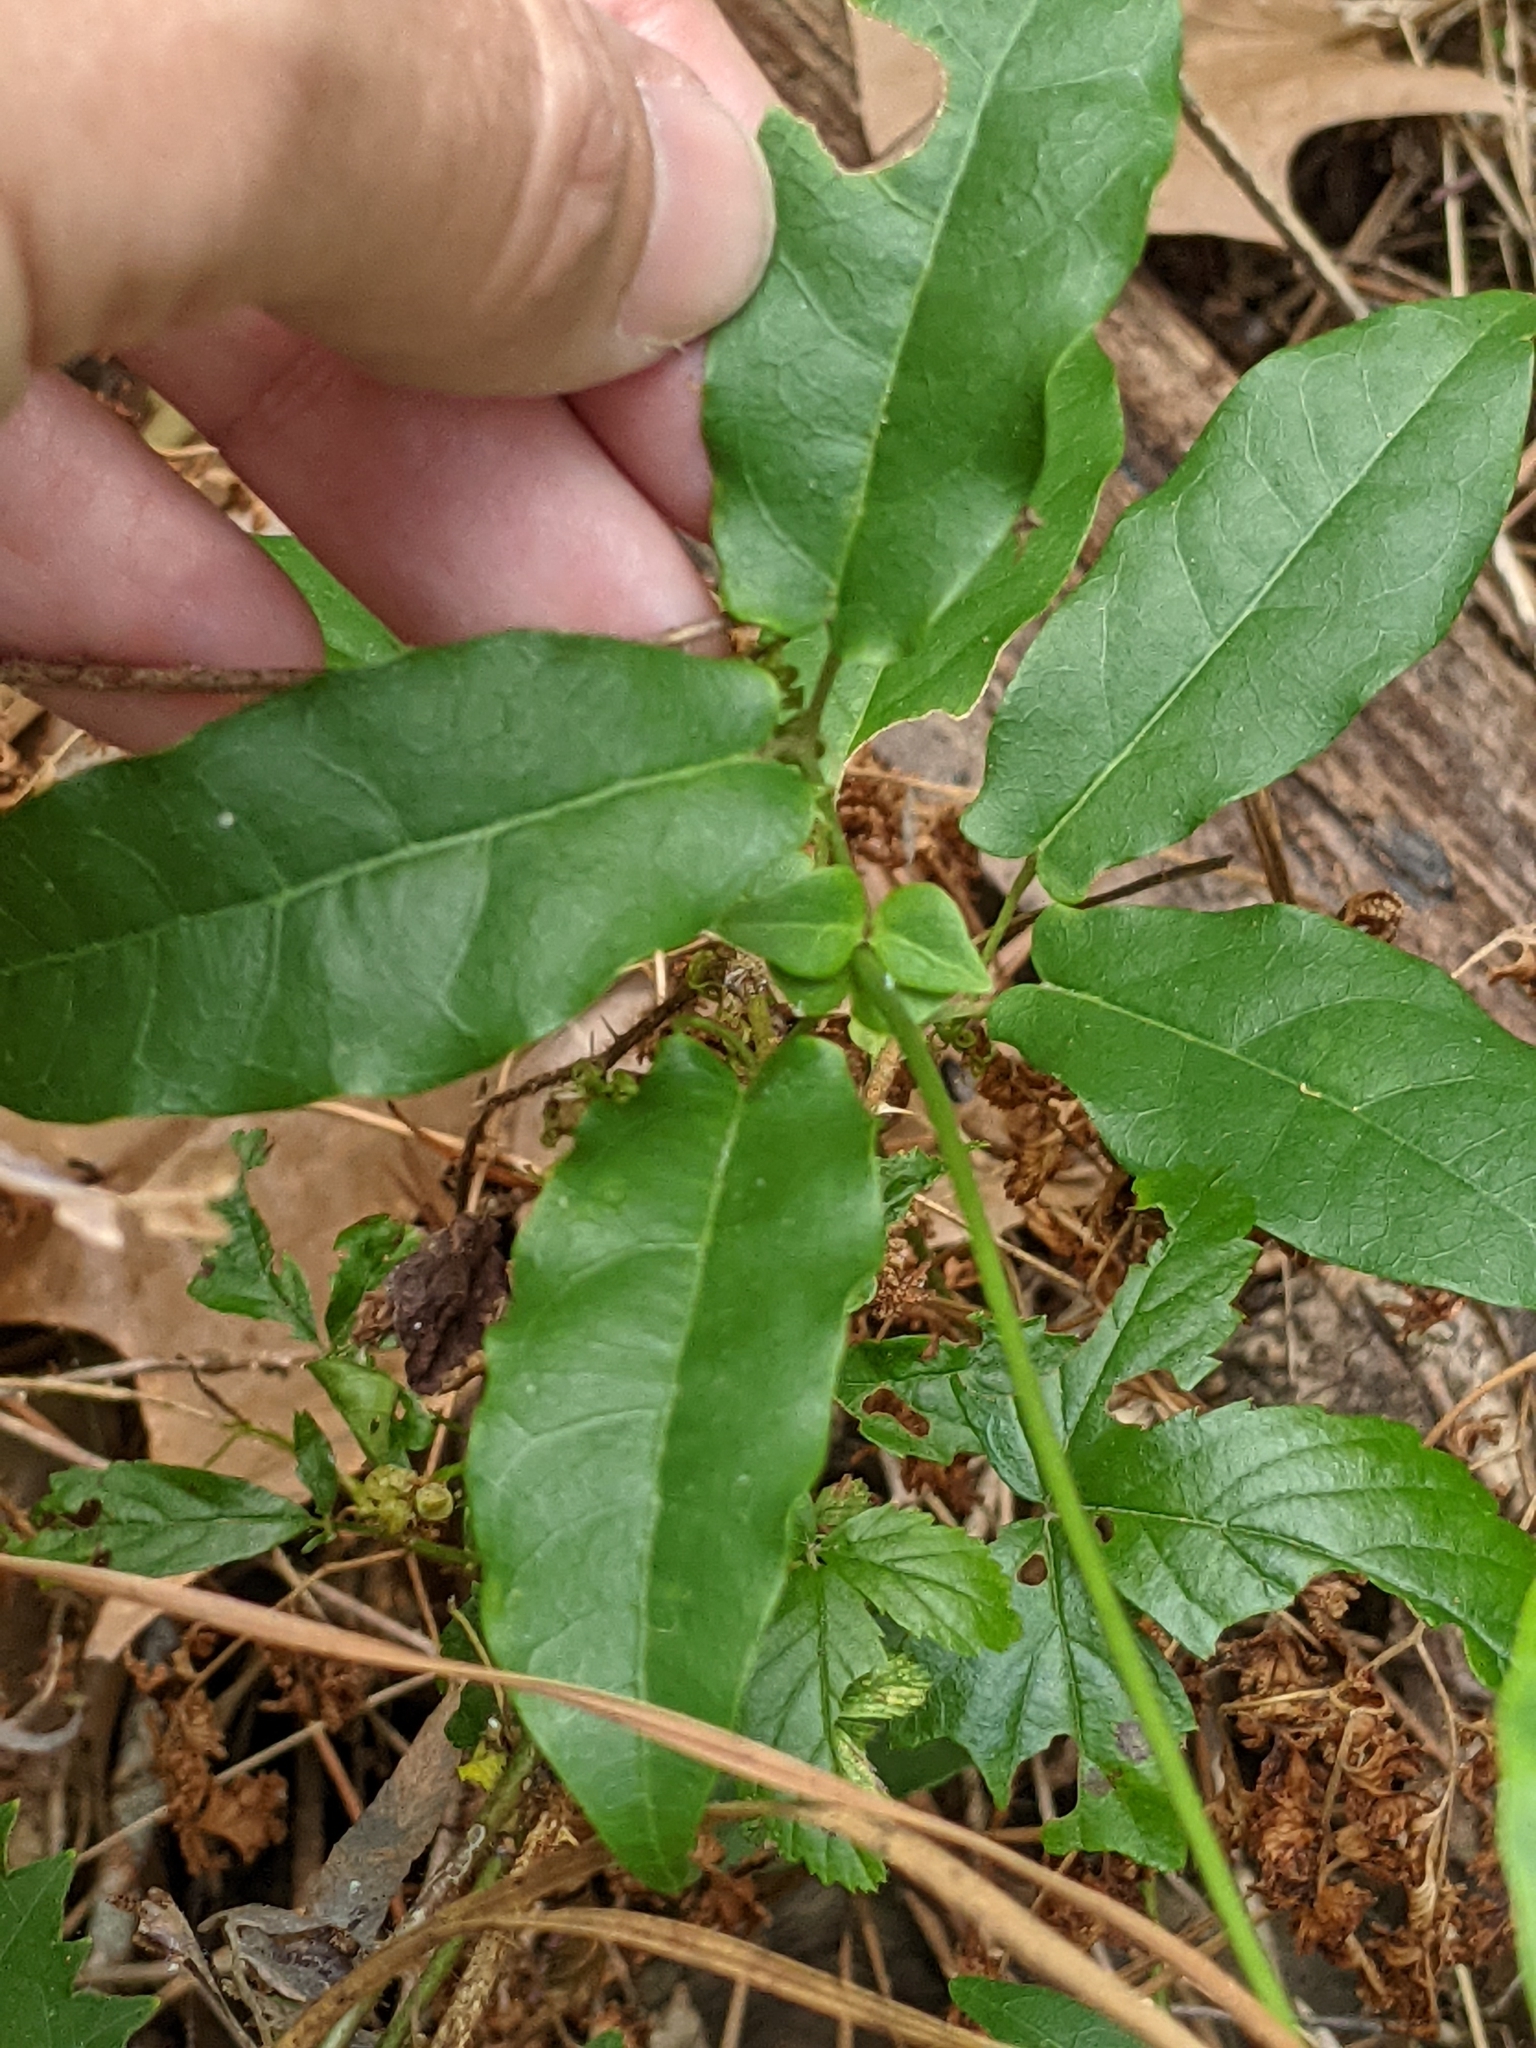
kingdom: Plantae
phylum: Tracheophyta
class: Magnoliopsida
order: Lamiales
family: Bignoniaceae
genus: Bignonia
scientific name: Bignonia capreolata
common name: Crossvine
